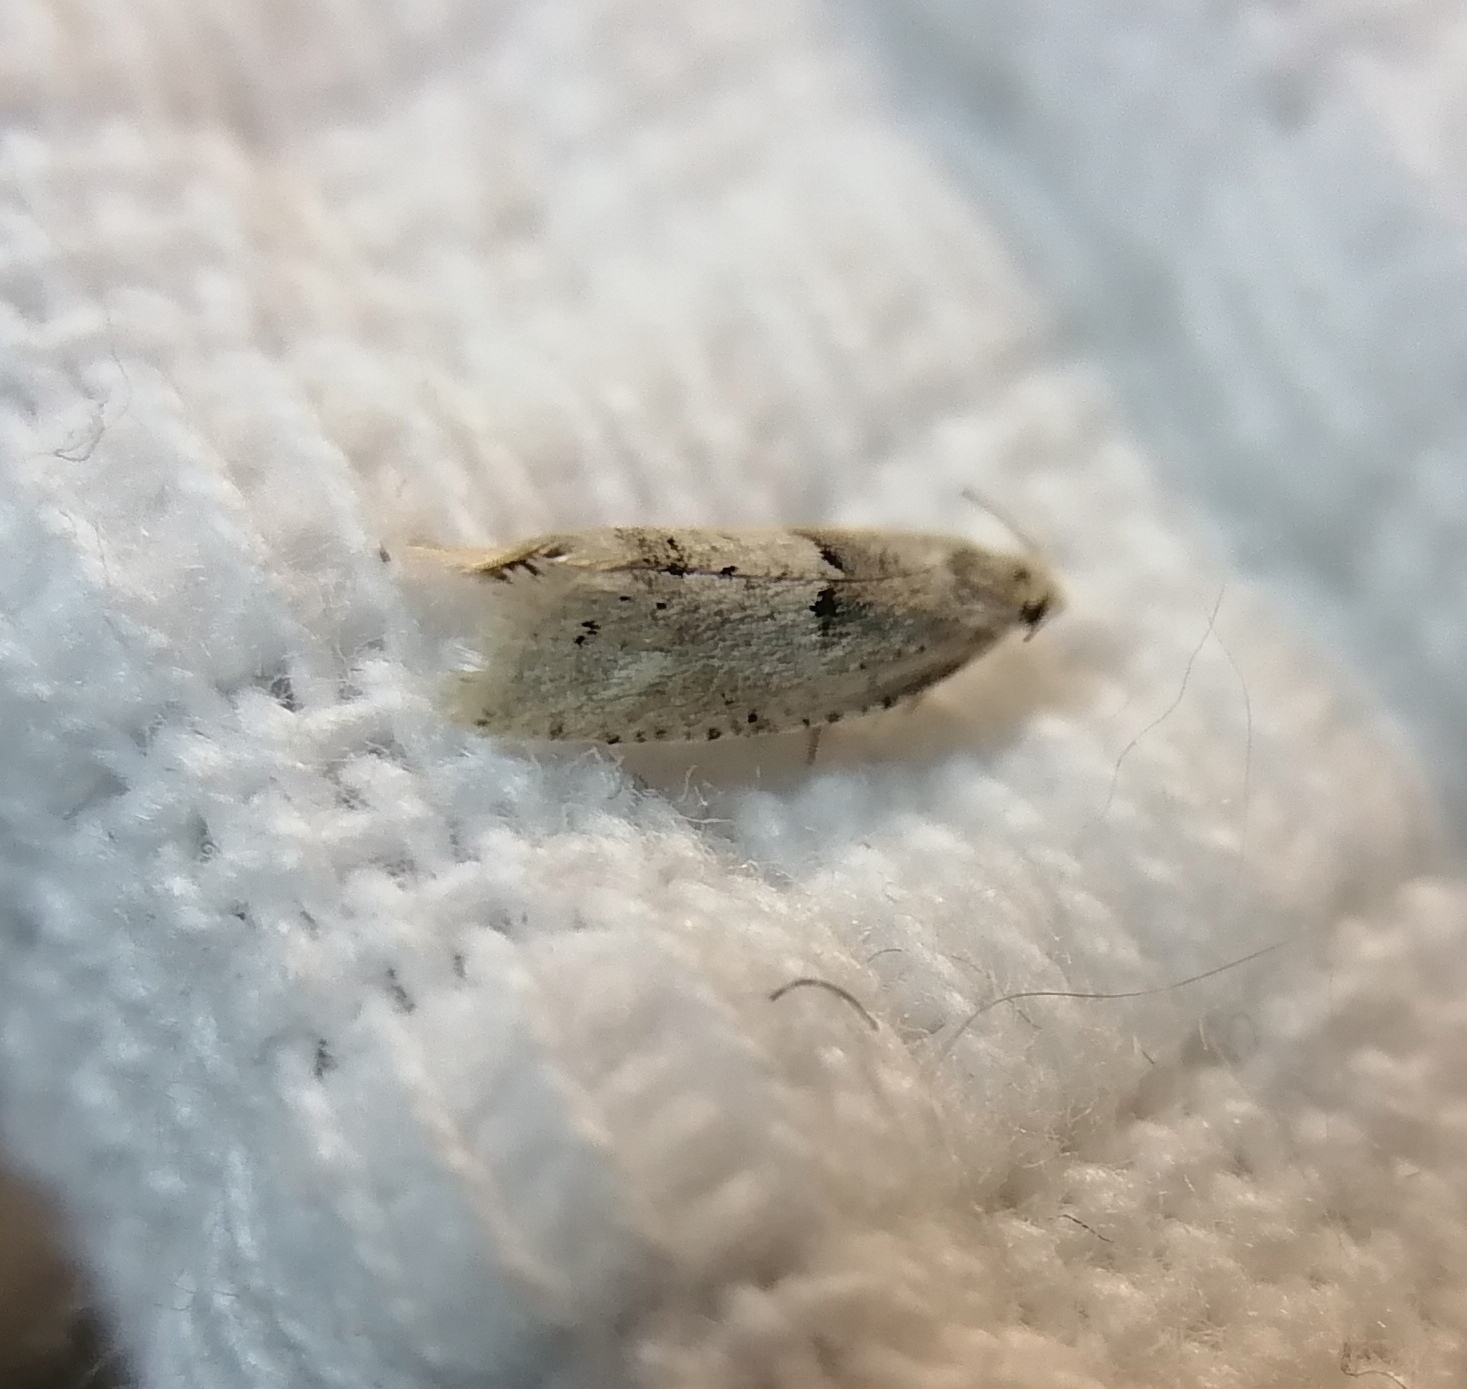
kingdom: Animalia
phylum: Arthropoda
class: Insecta
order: Lepidoptera
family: Tortricidae
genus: Epinotia
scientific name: Epinotia bilunana
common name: Crescent bell
